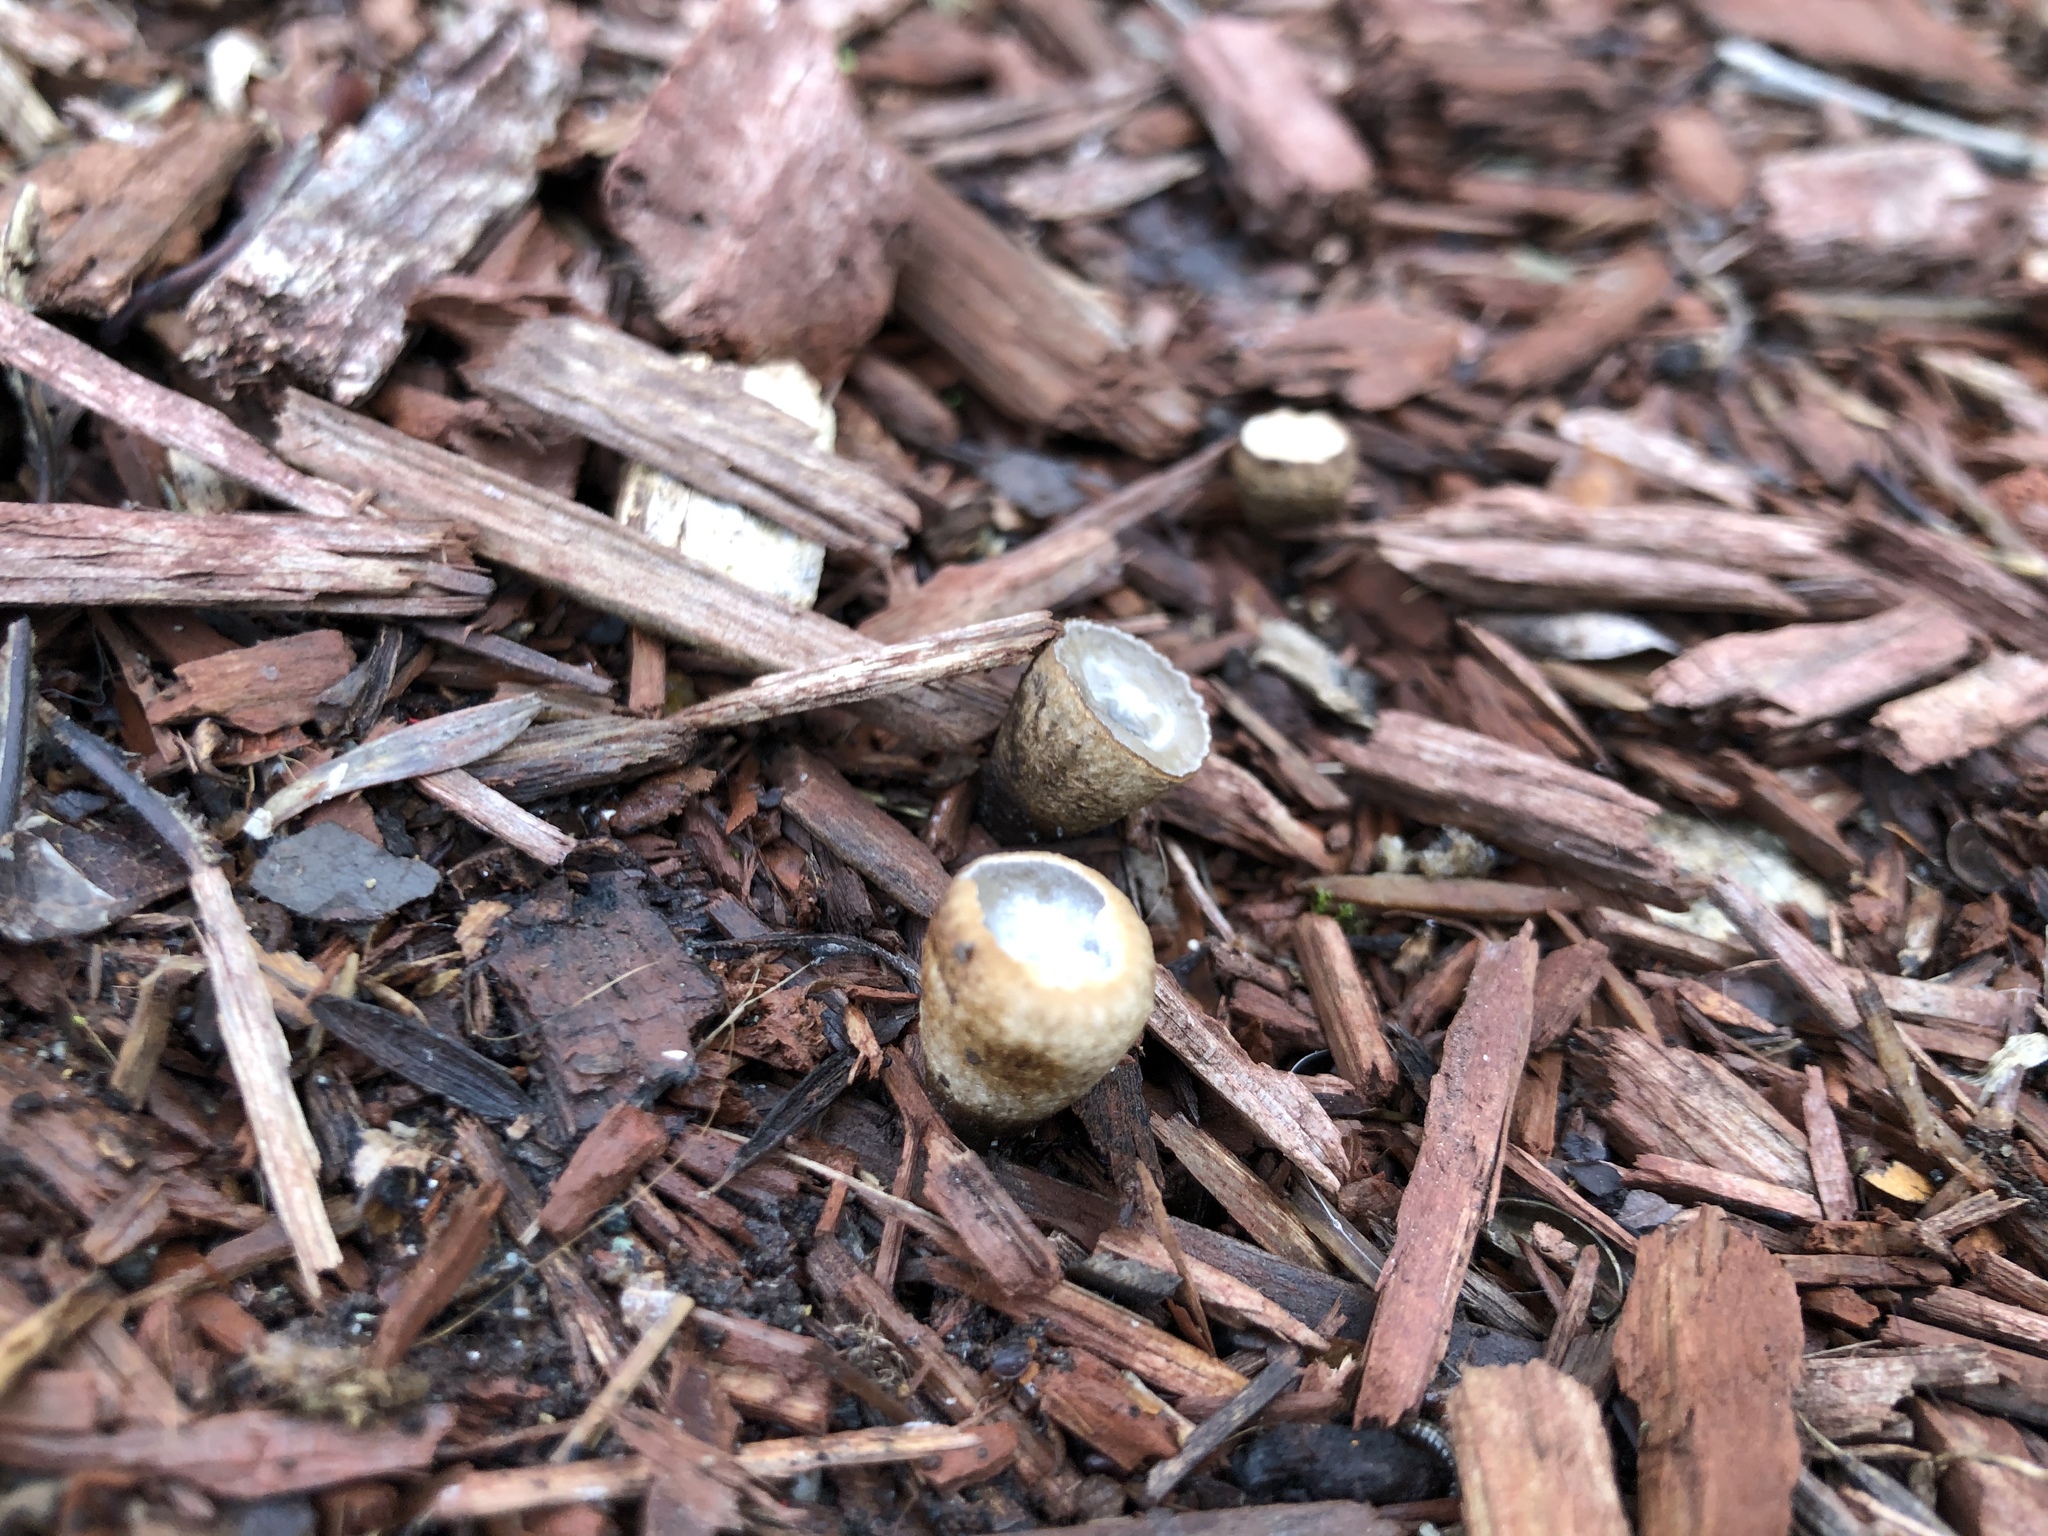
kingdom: Fungi
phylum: Basidiomycota
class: Agaricomycetes
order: Agaricales
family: Agaricaceae
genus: Cyathus
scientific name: Cyathus olla
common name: Field bird's nest
